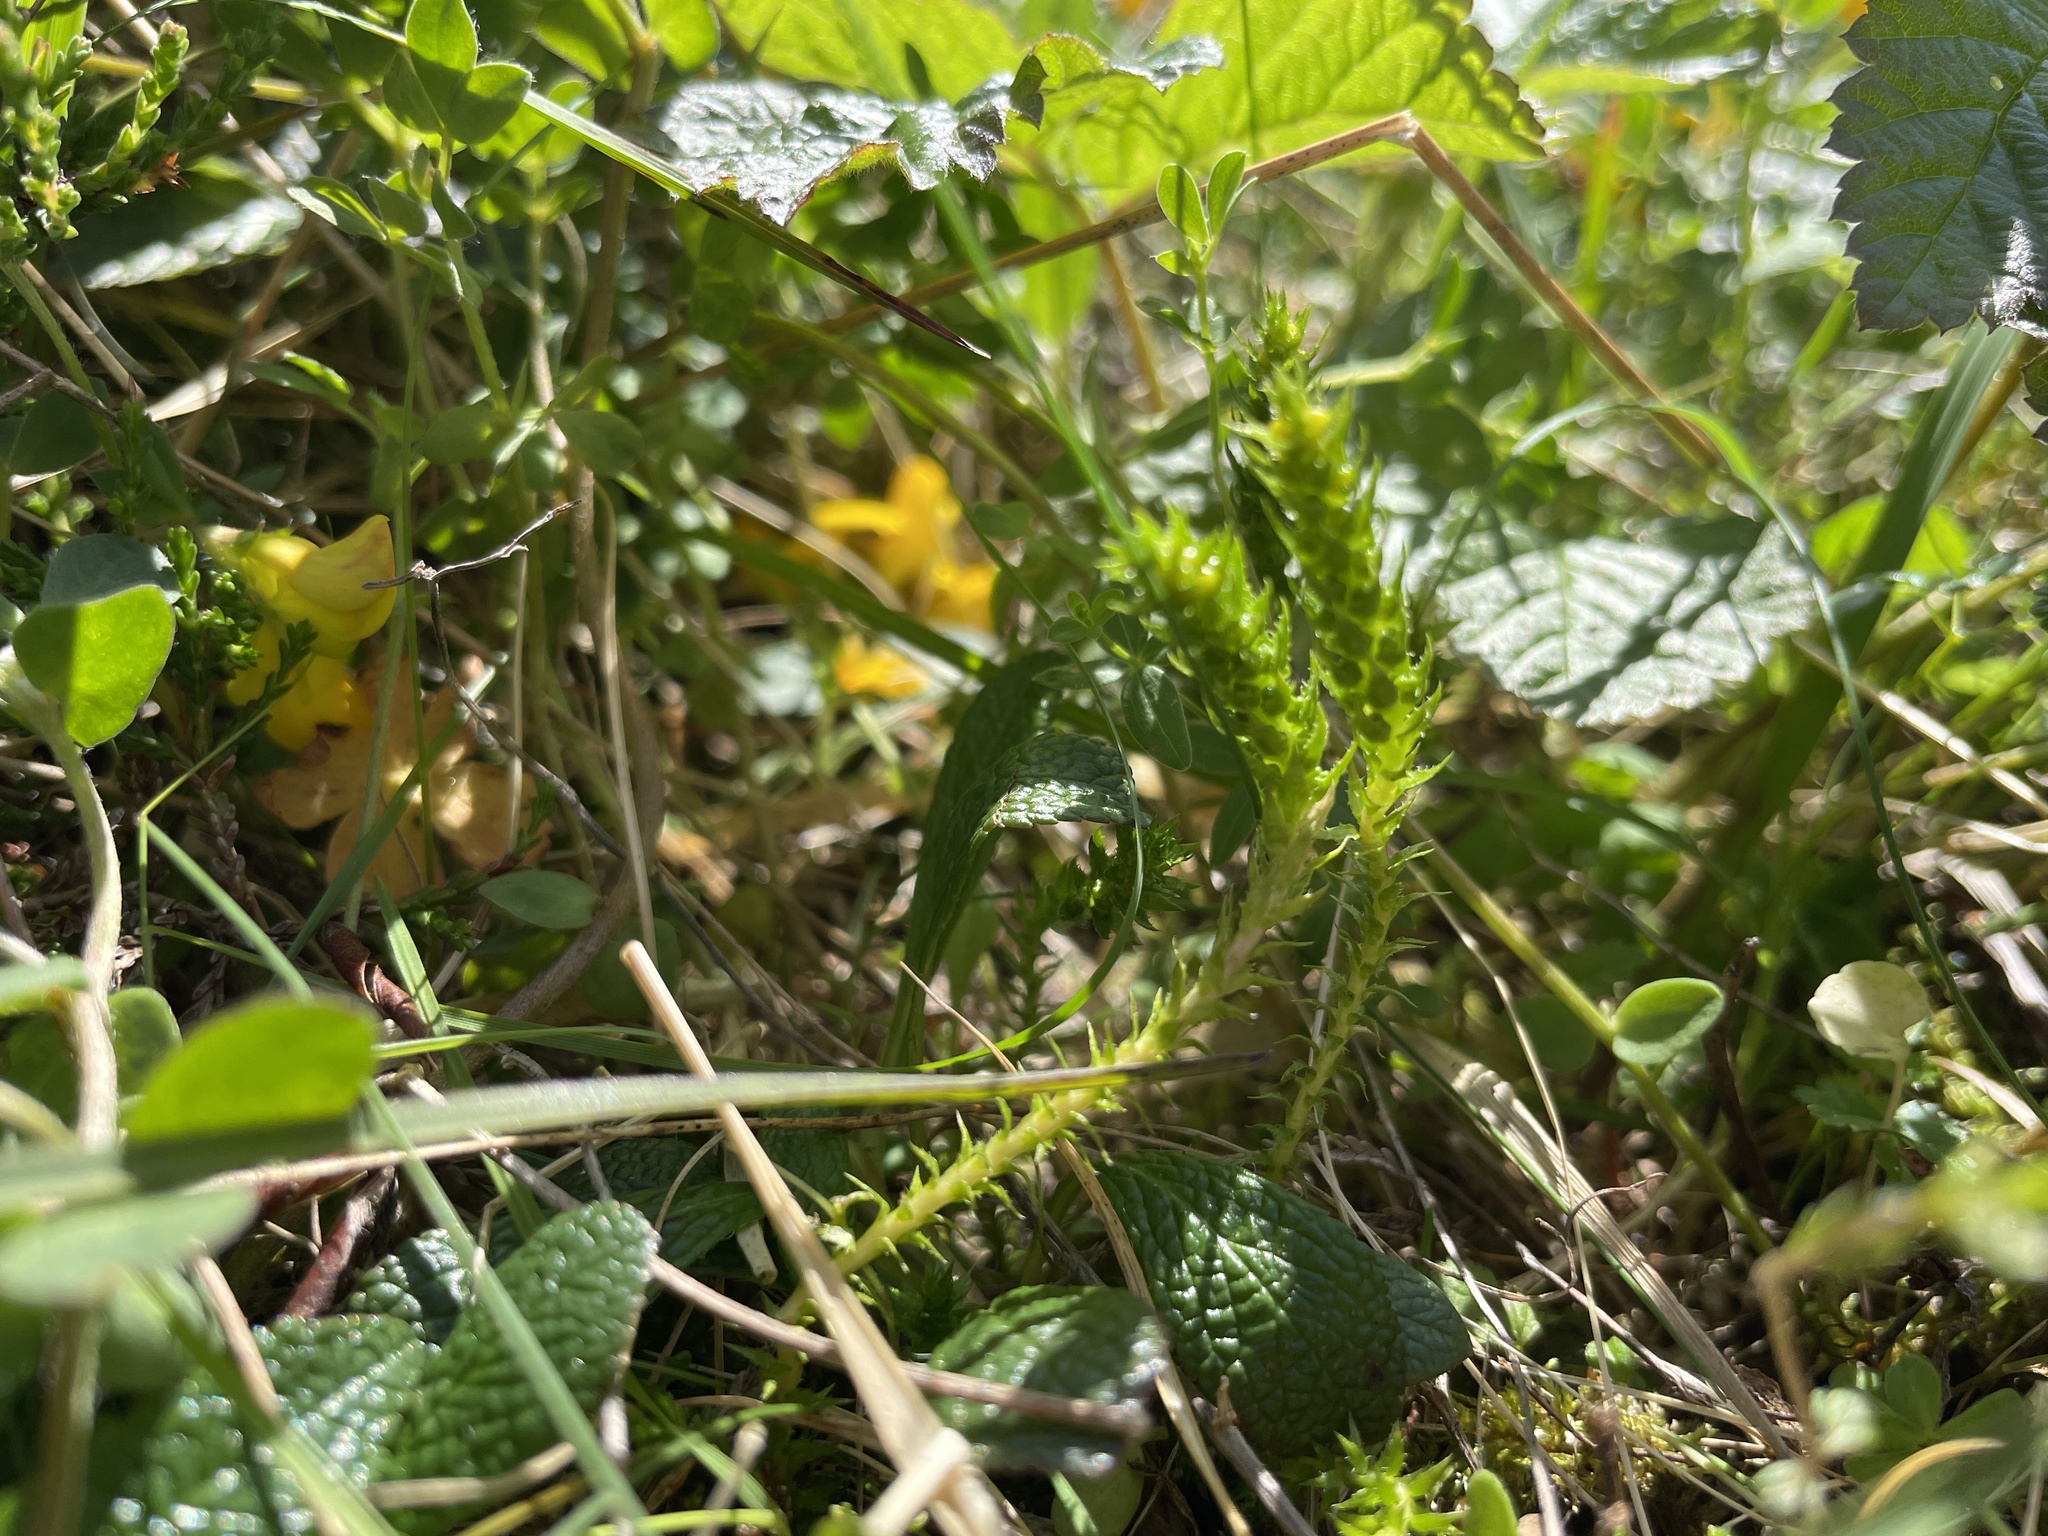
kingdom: Plantae
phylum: Tracheophyta
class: Lycopodiopsida
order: Selaginellales
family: Selaginellaceae
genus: Selaginella
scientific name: Selaginella selaginoides
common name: Prickly mountain-moss
